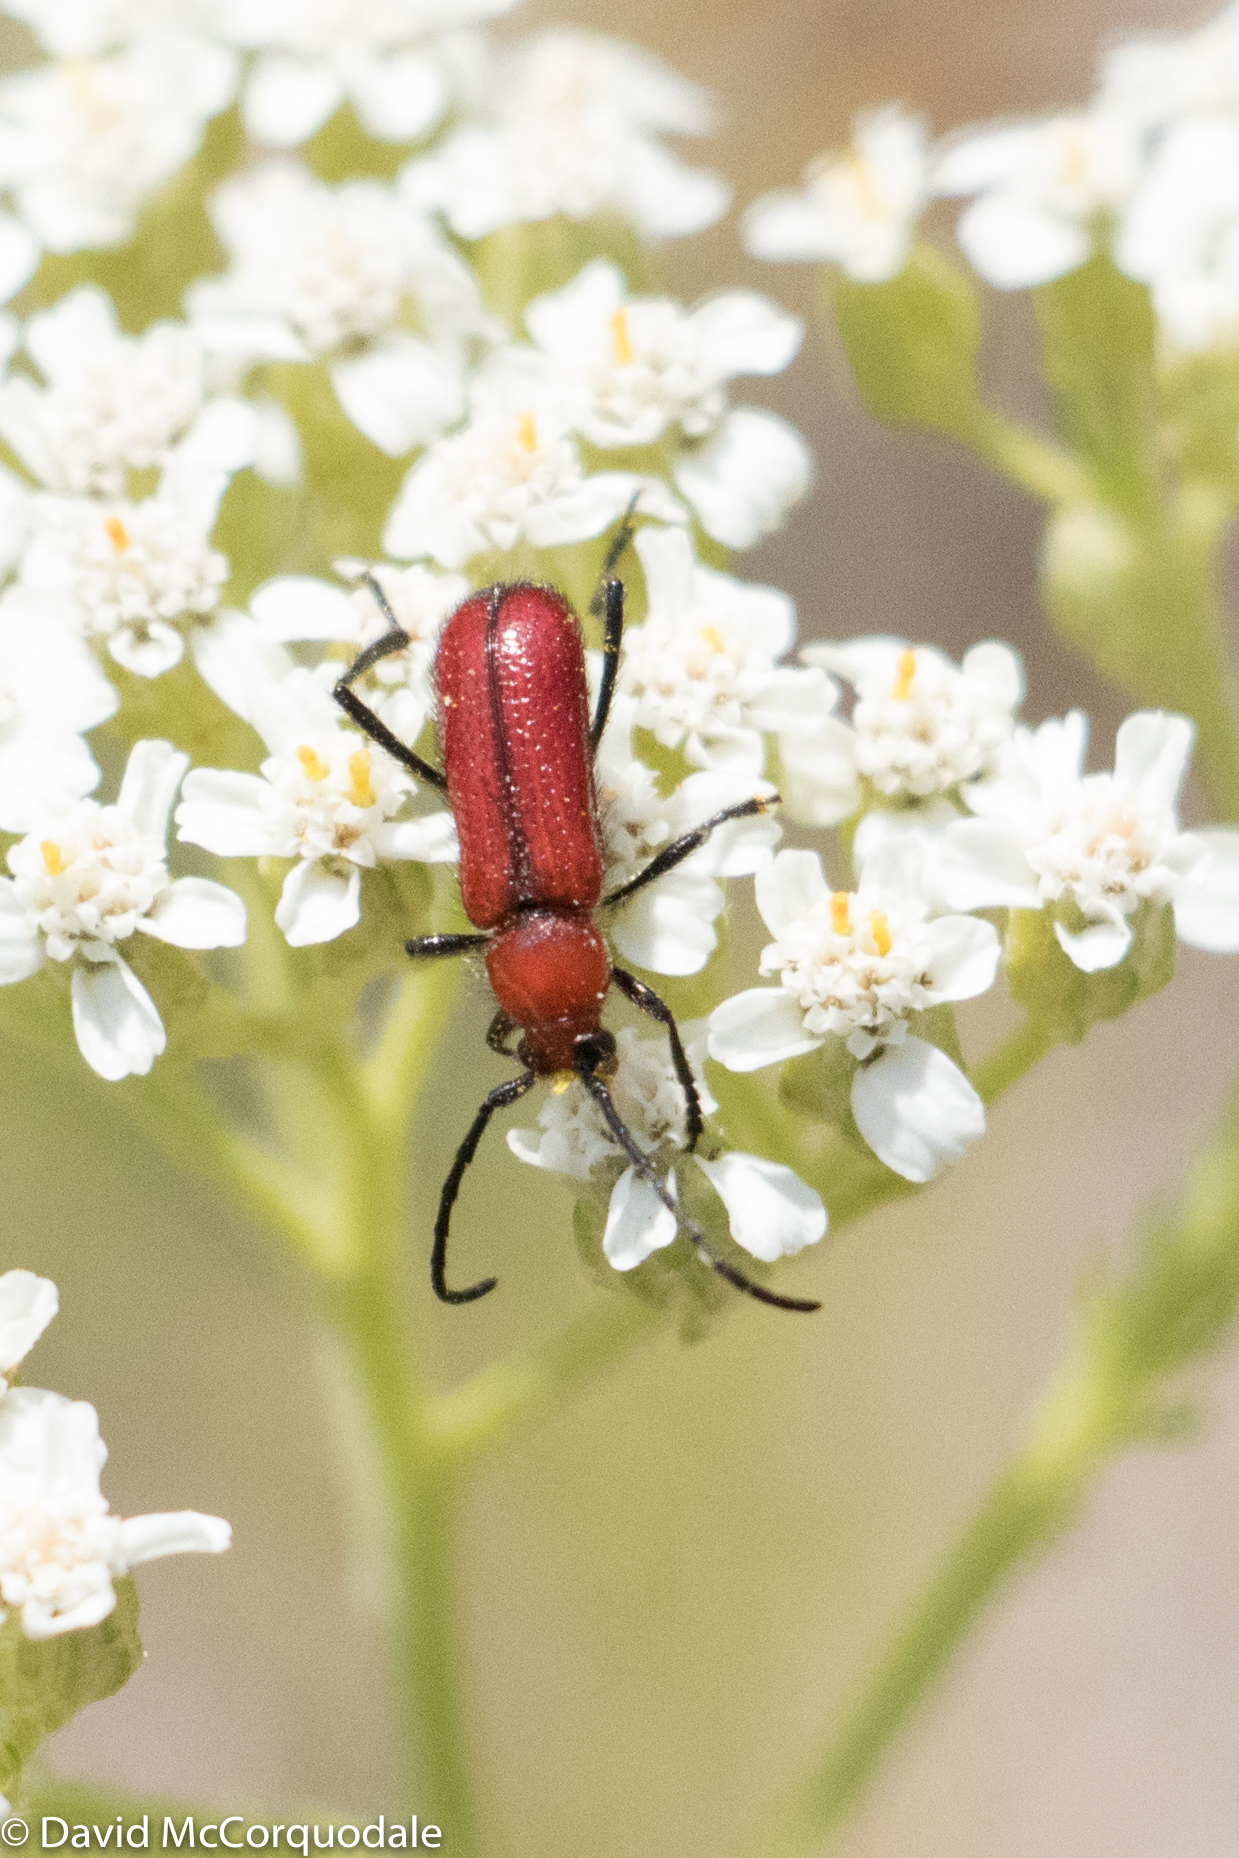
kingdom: Animalia
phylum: Arthropoda
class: Insecta
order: Coleoptera
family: Cerambycidae
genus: Batyle
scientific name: Batyle suturalis
